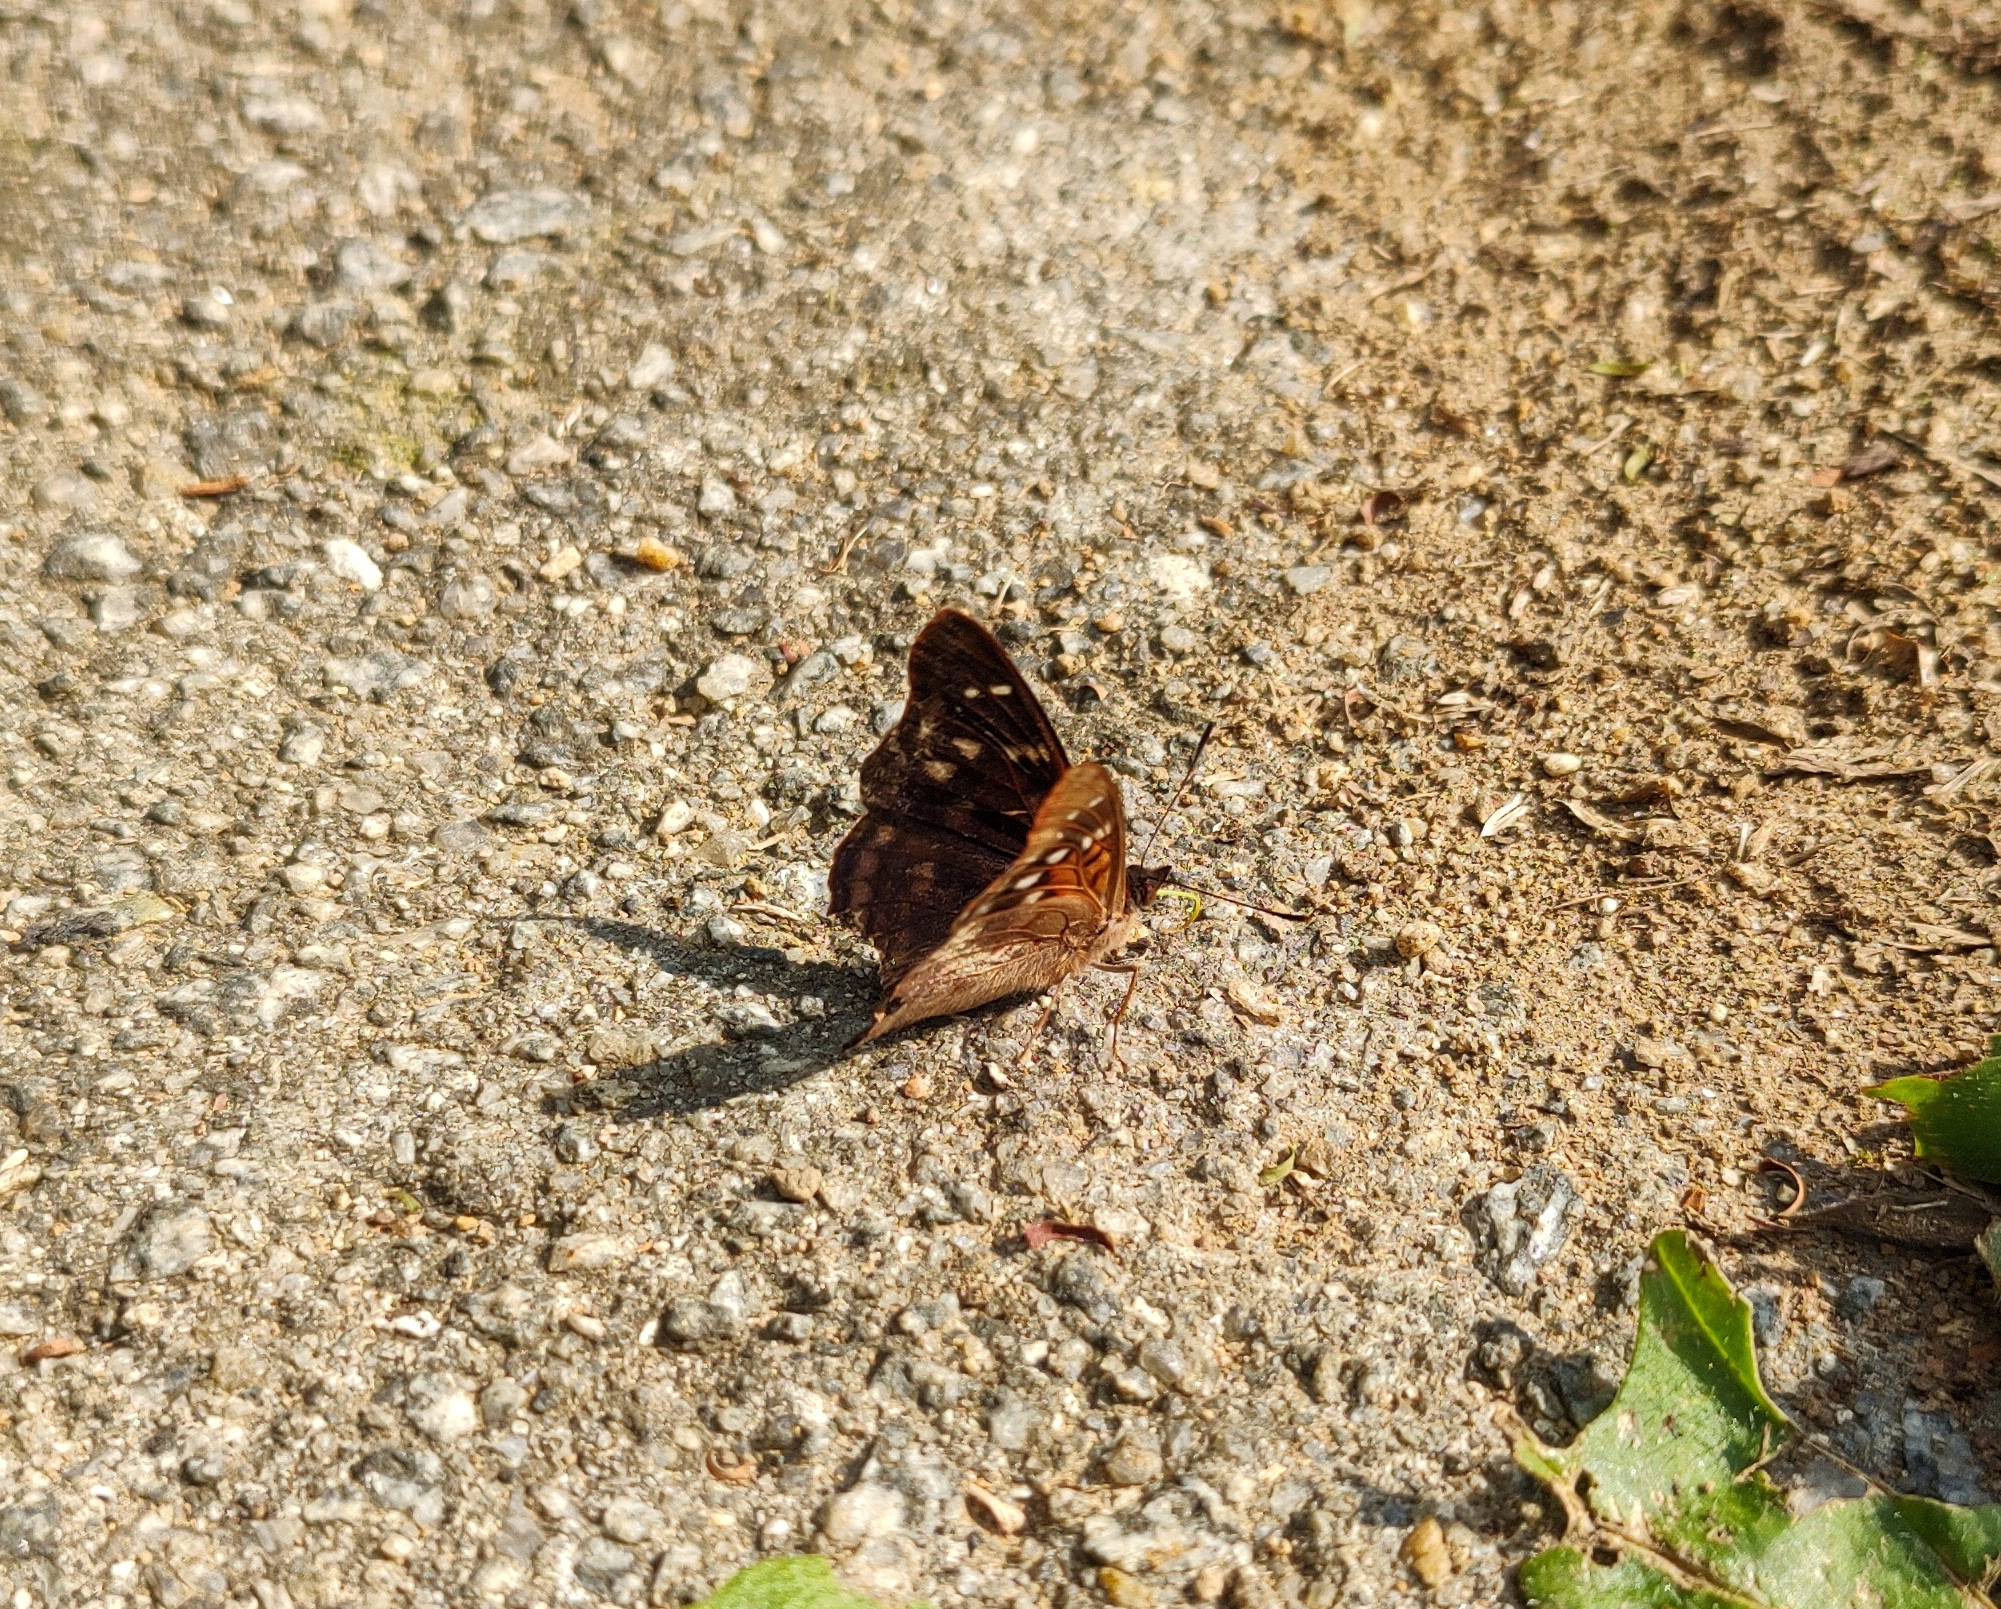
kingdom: Animalia
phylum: Arthropoda
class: Insecta
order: Lepidoptera
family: Nymphalidae
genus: Doxocopa
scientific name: Doxocopa kallina
